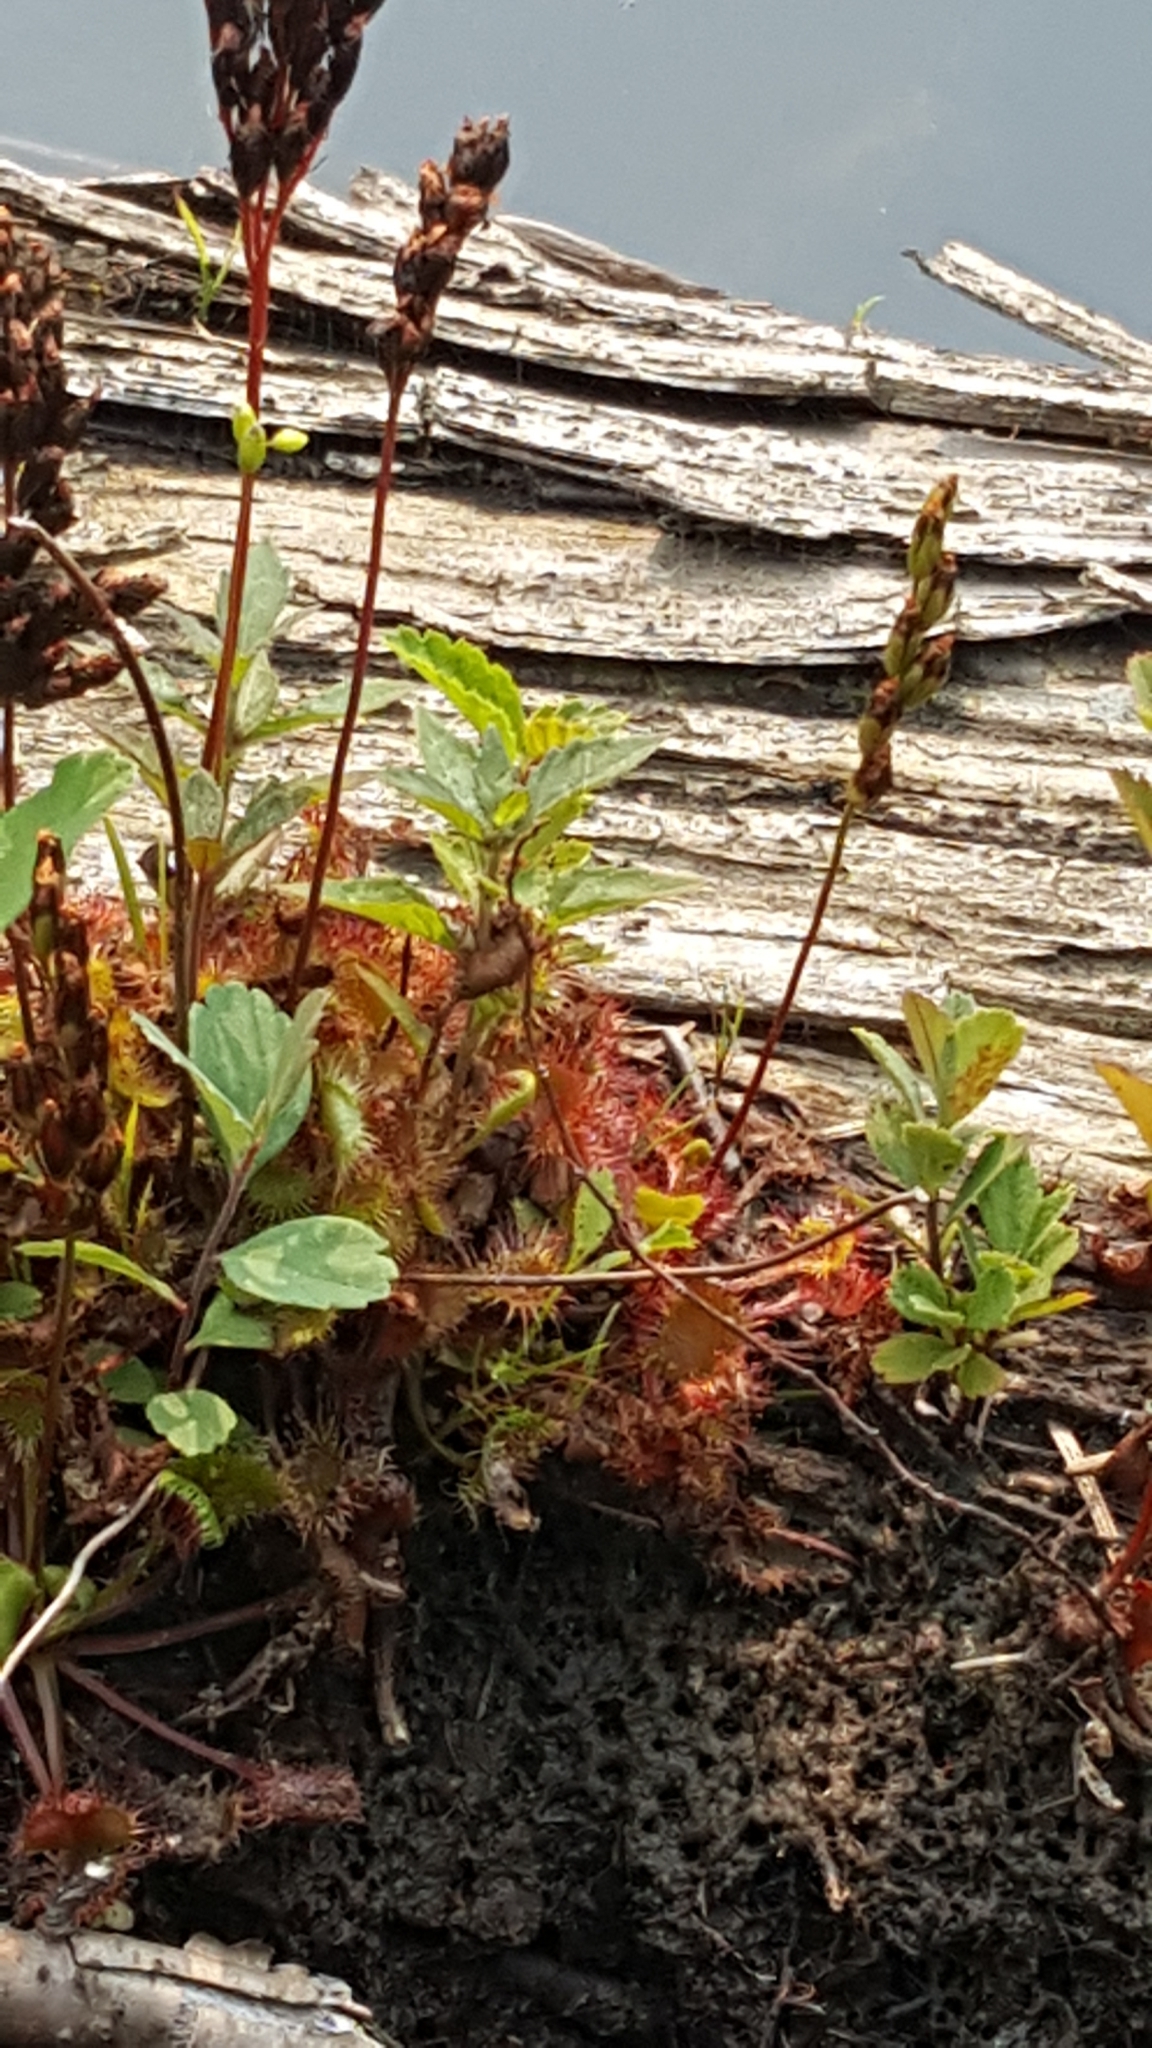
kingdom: Plantae
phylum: Tracheophyta
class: Magnoliopsida
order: Caryophyllales
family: Droseraceae
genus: Drosera
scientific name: Drosera rotundifolia
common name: Round-leaved sundew
